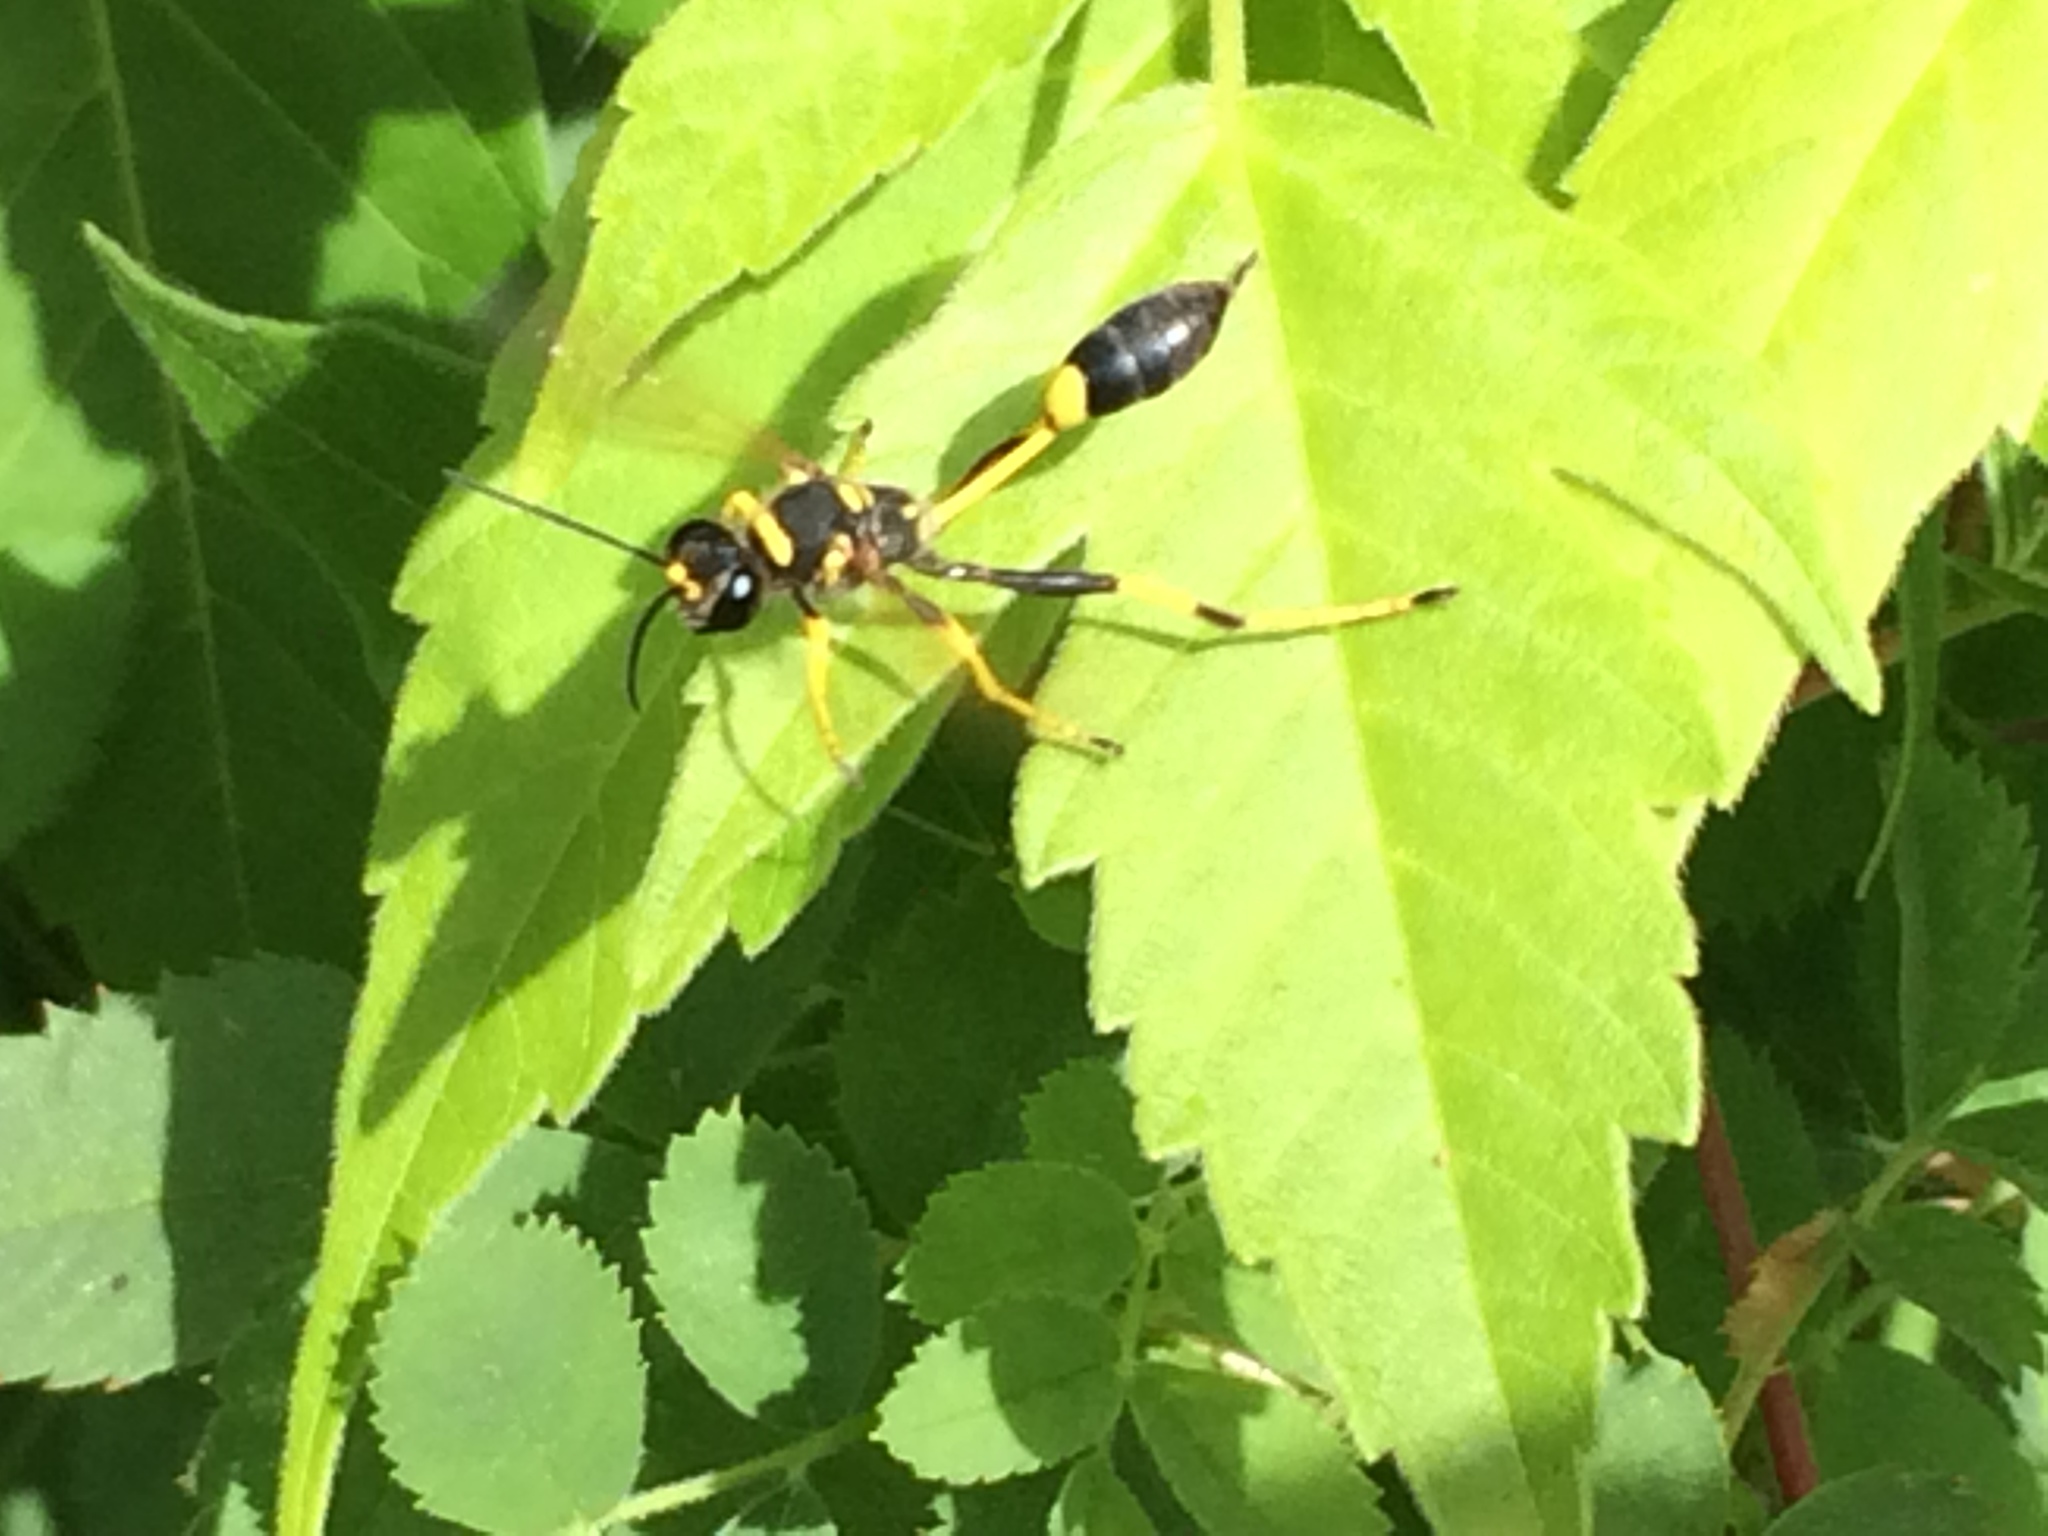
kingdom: Animalia
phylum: Arthropoda
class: Insecta
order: Hymenoptera
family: Sphecidae
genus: Sceliphron
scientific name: Sceliphron caementarium
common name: Mud dauber
